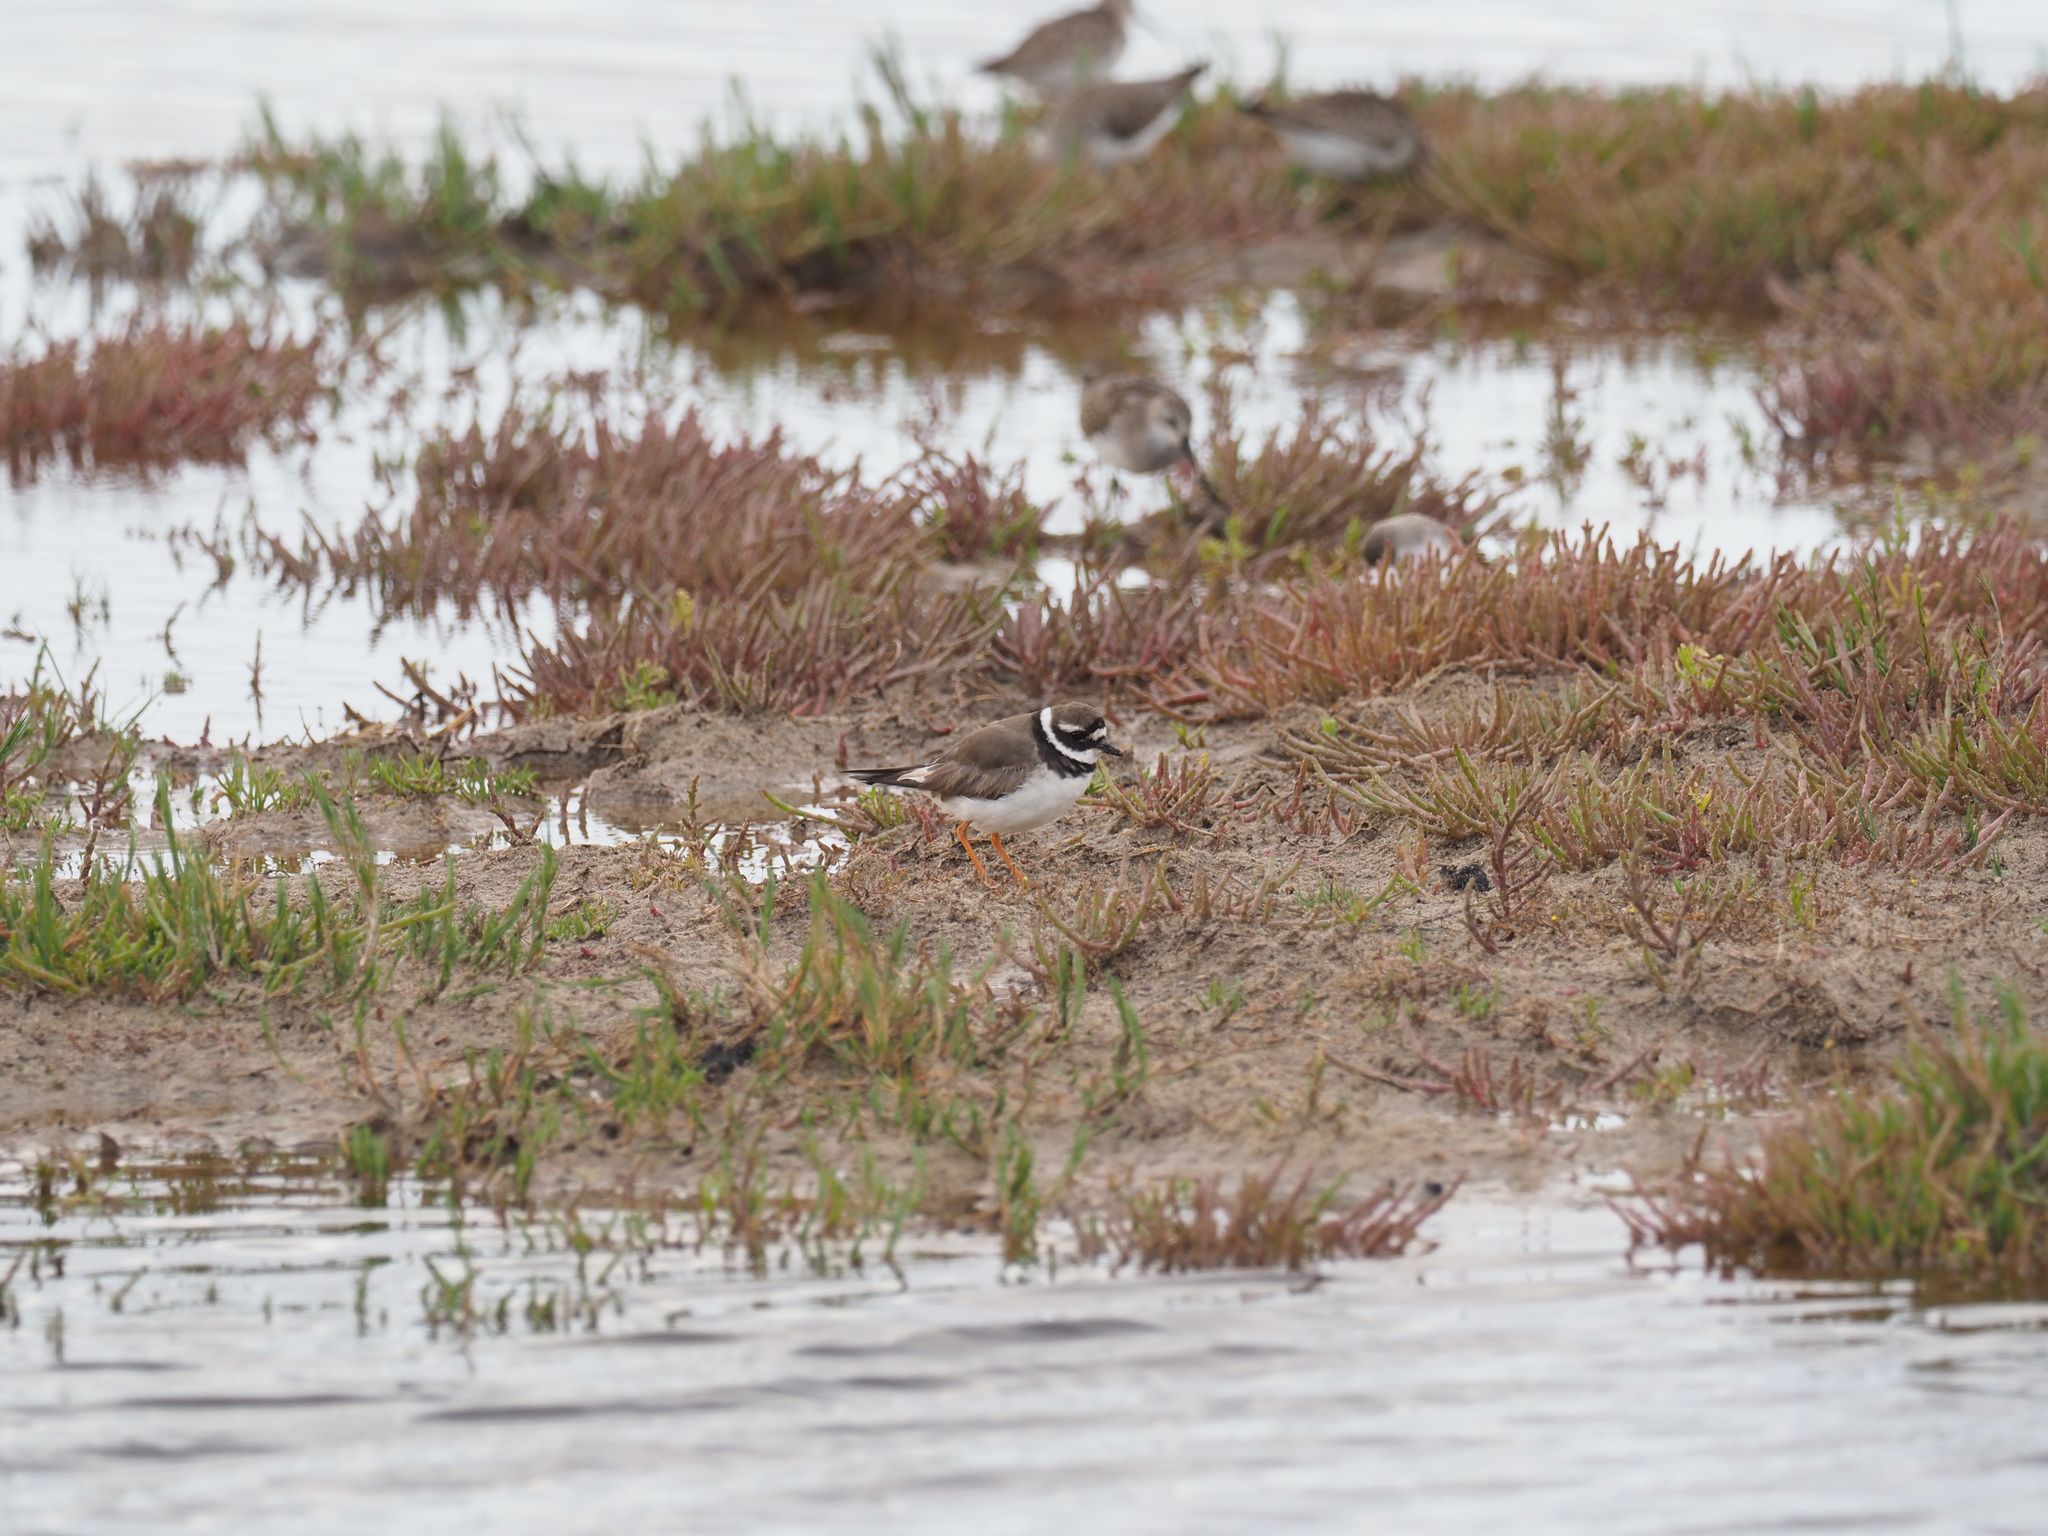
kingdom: Animalia
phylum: Chordata
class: Aves
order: Charadriiformes
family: Charadriidae
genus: Charadrius
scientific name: Charadrius hiaticula
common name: Common ringed plover
